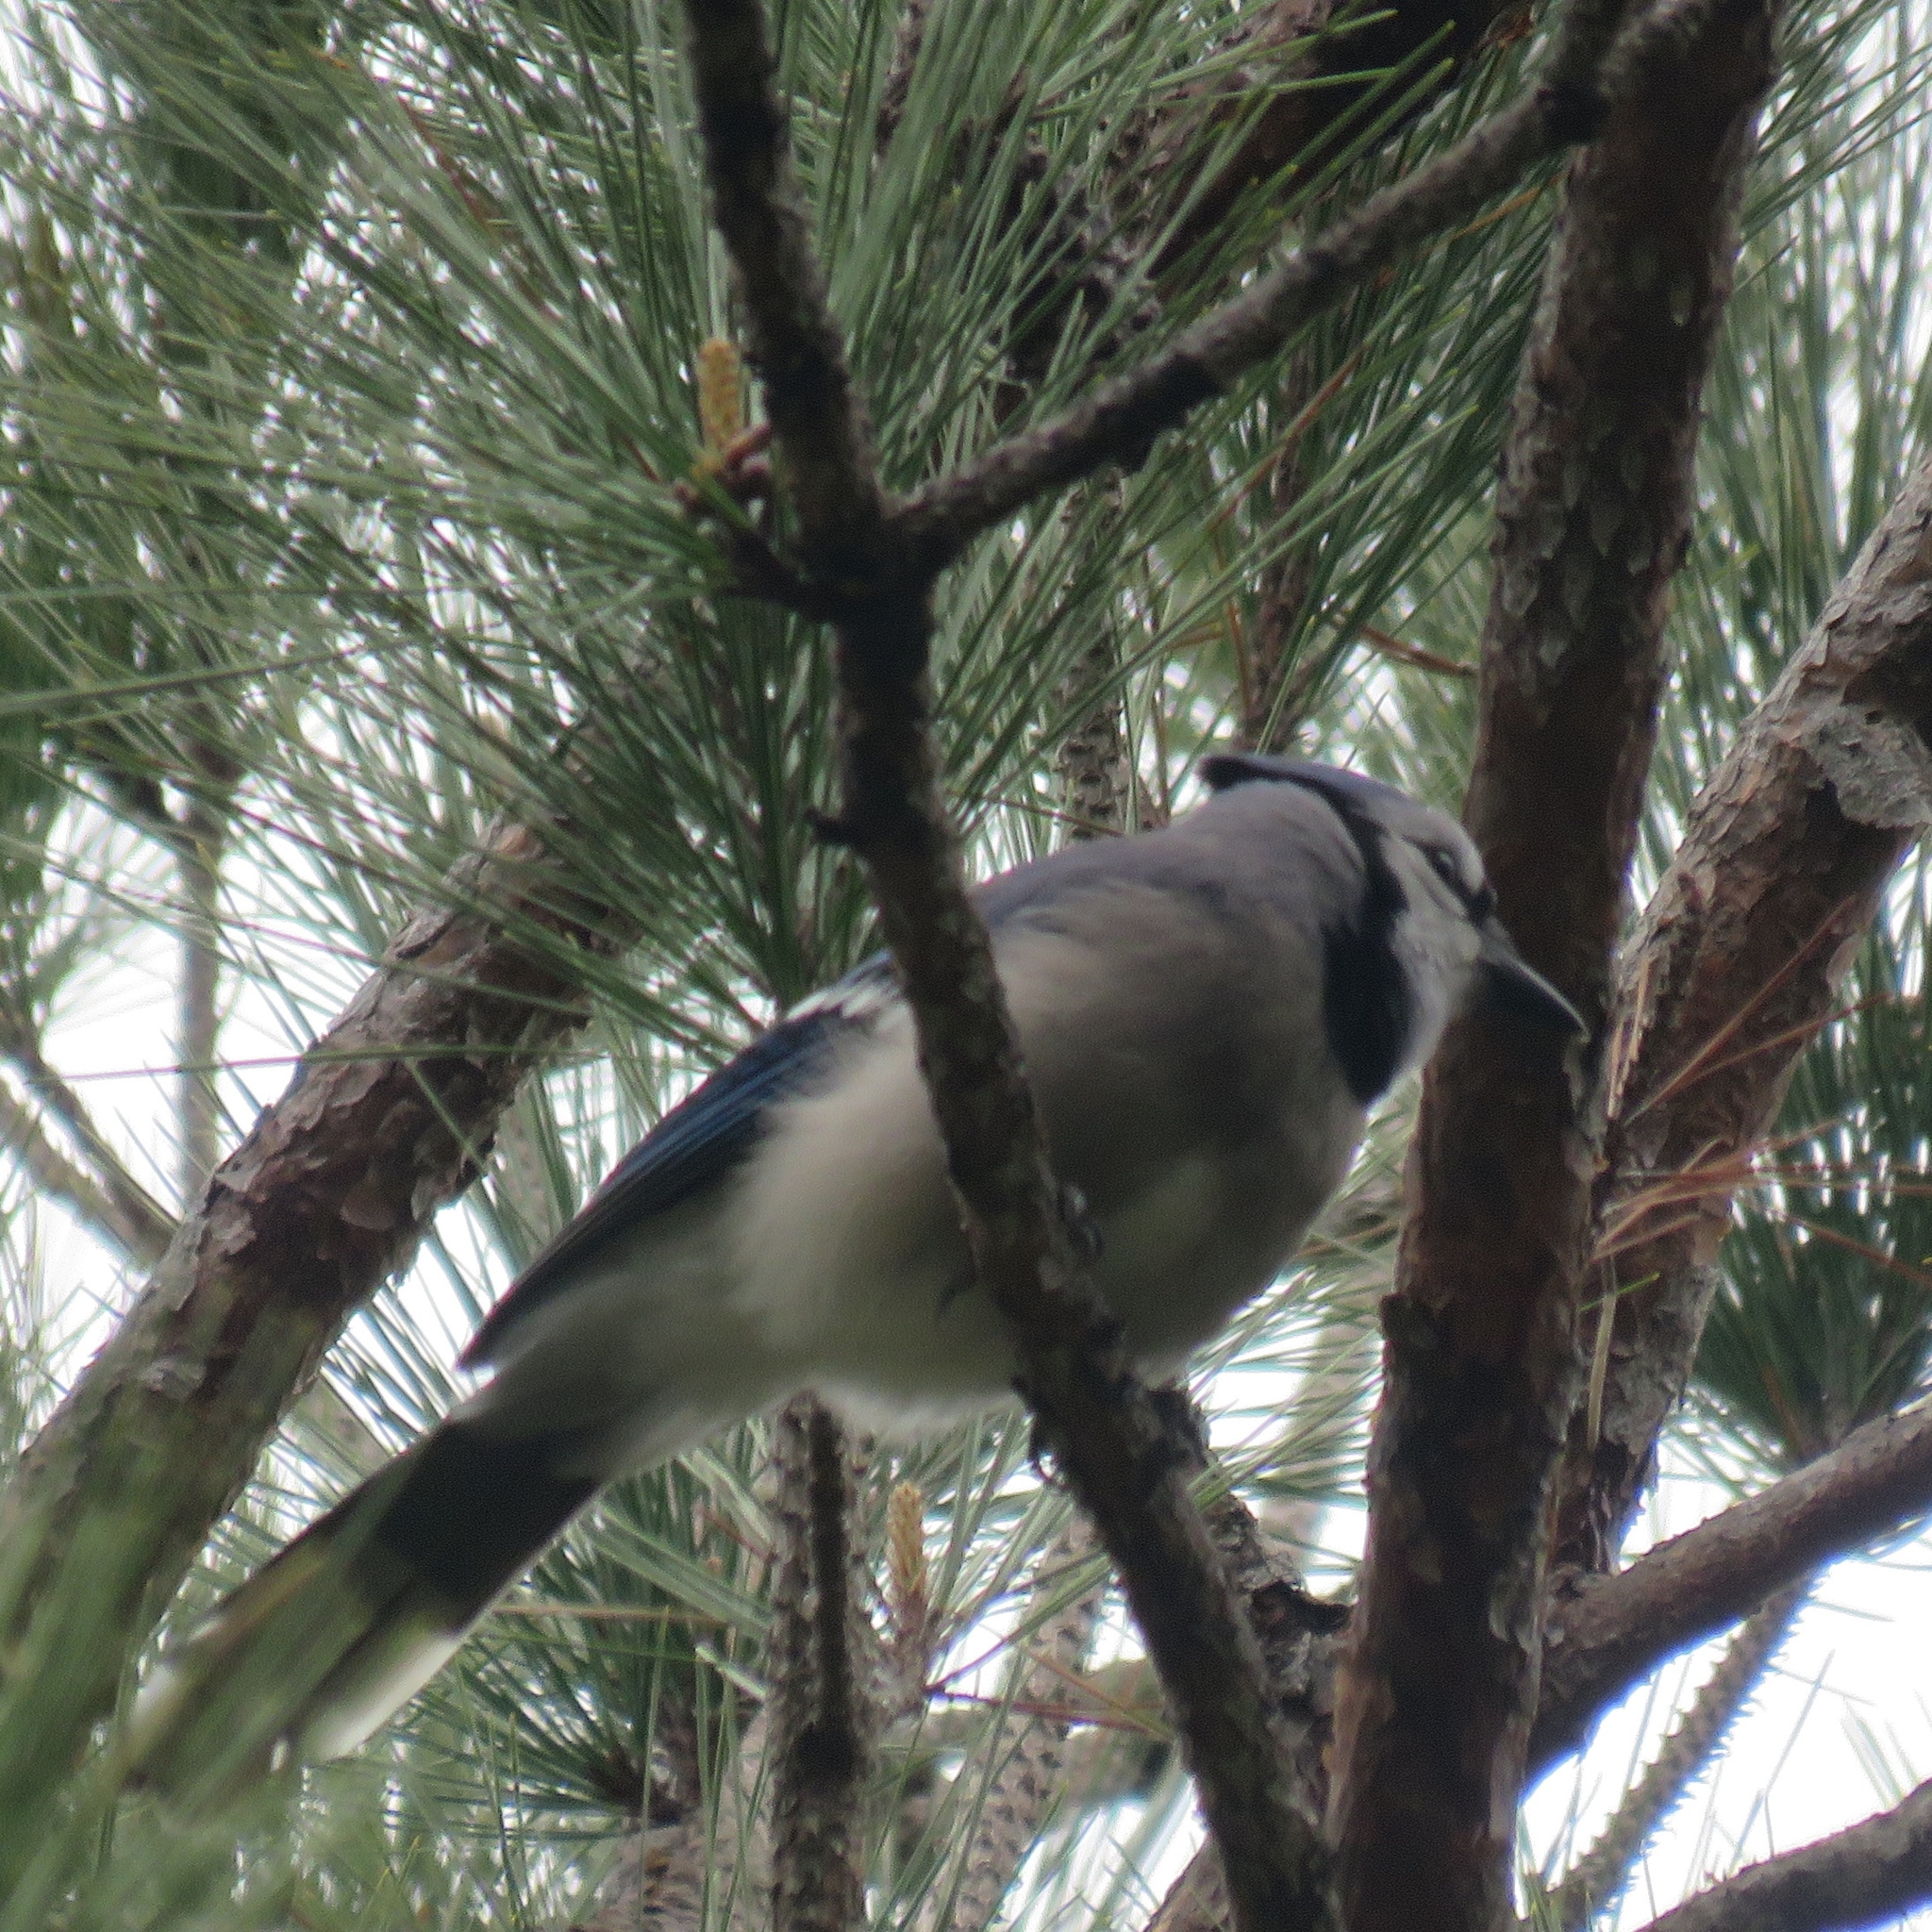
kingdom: Animalia
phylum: Chordata
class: Aves
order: Passeriformes
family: Corvidae
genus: Cyanocitta
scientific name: Cyanocitta cristata
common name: Blue jay
